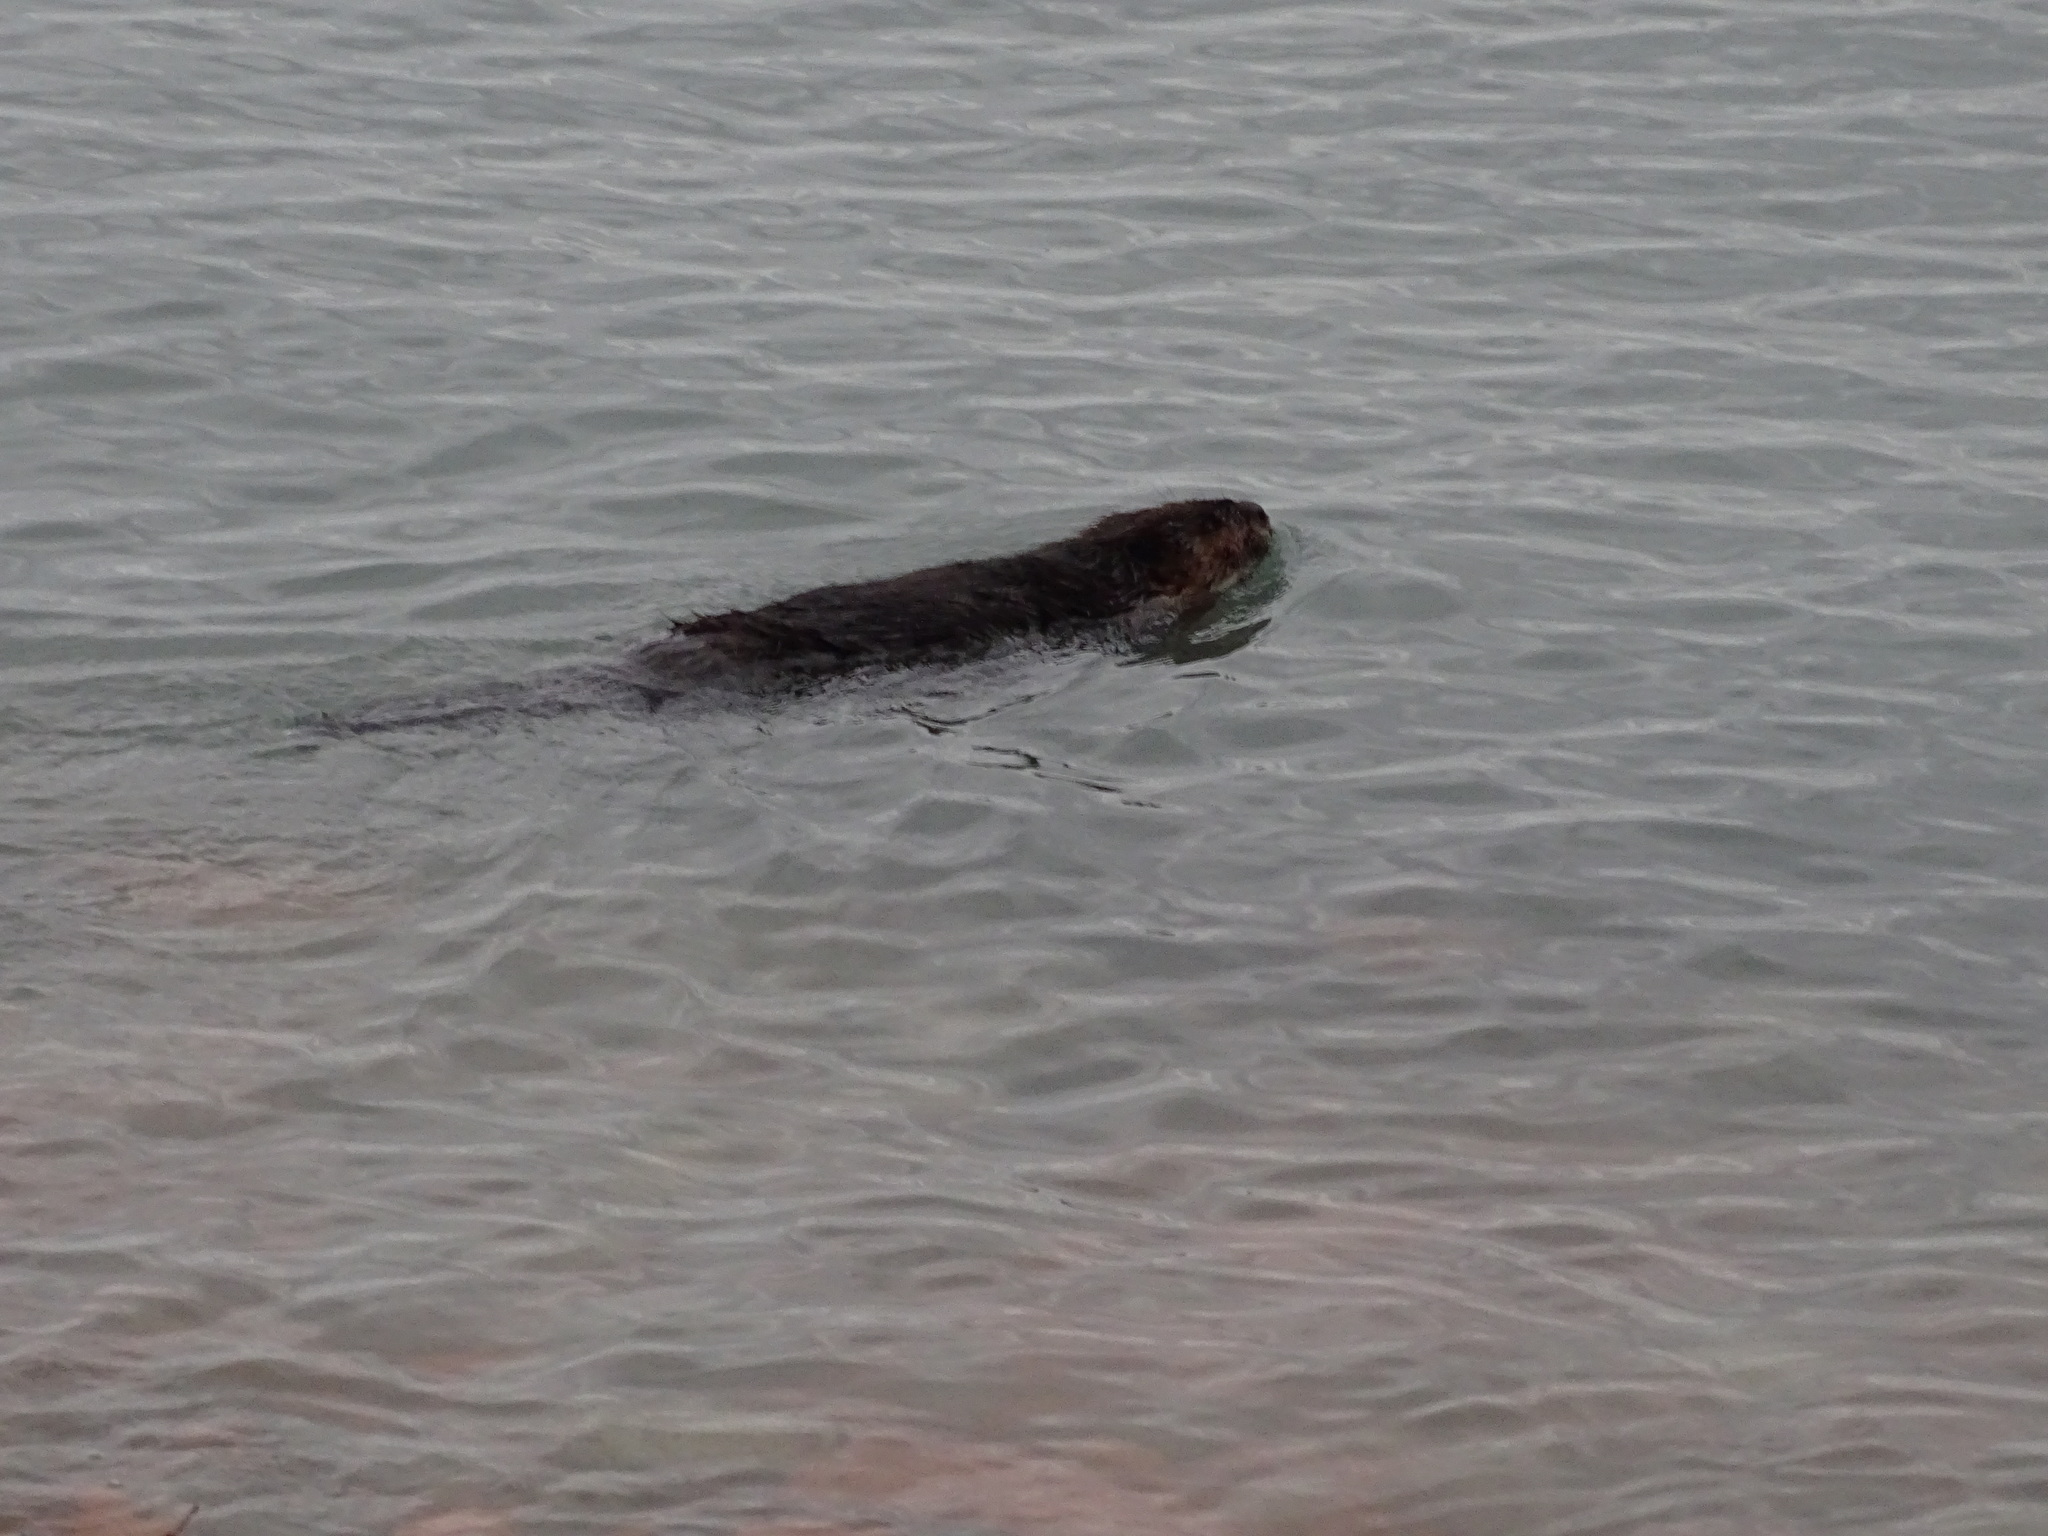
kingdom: Animalia
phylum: Chordata
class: Mammalia
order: Rodentia
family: Castoridae
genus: Castor
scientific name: Castor canadensis
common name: American beaver
